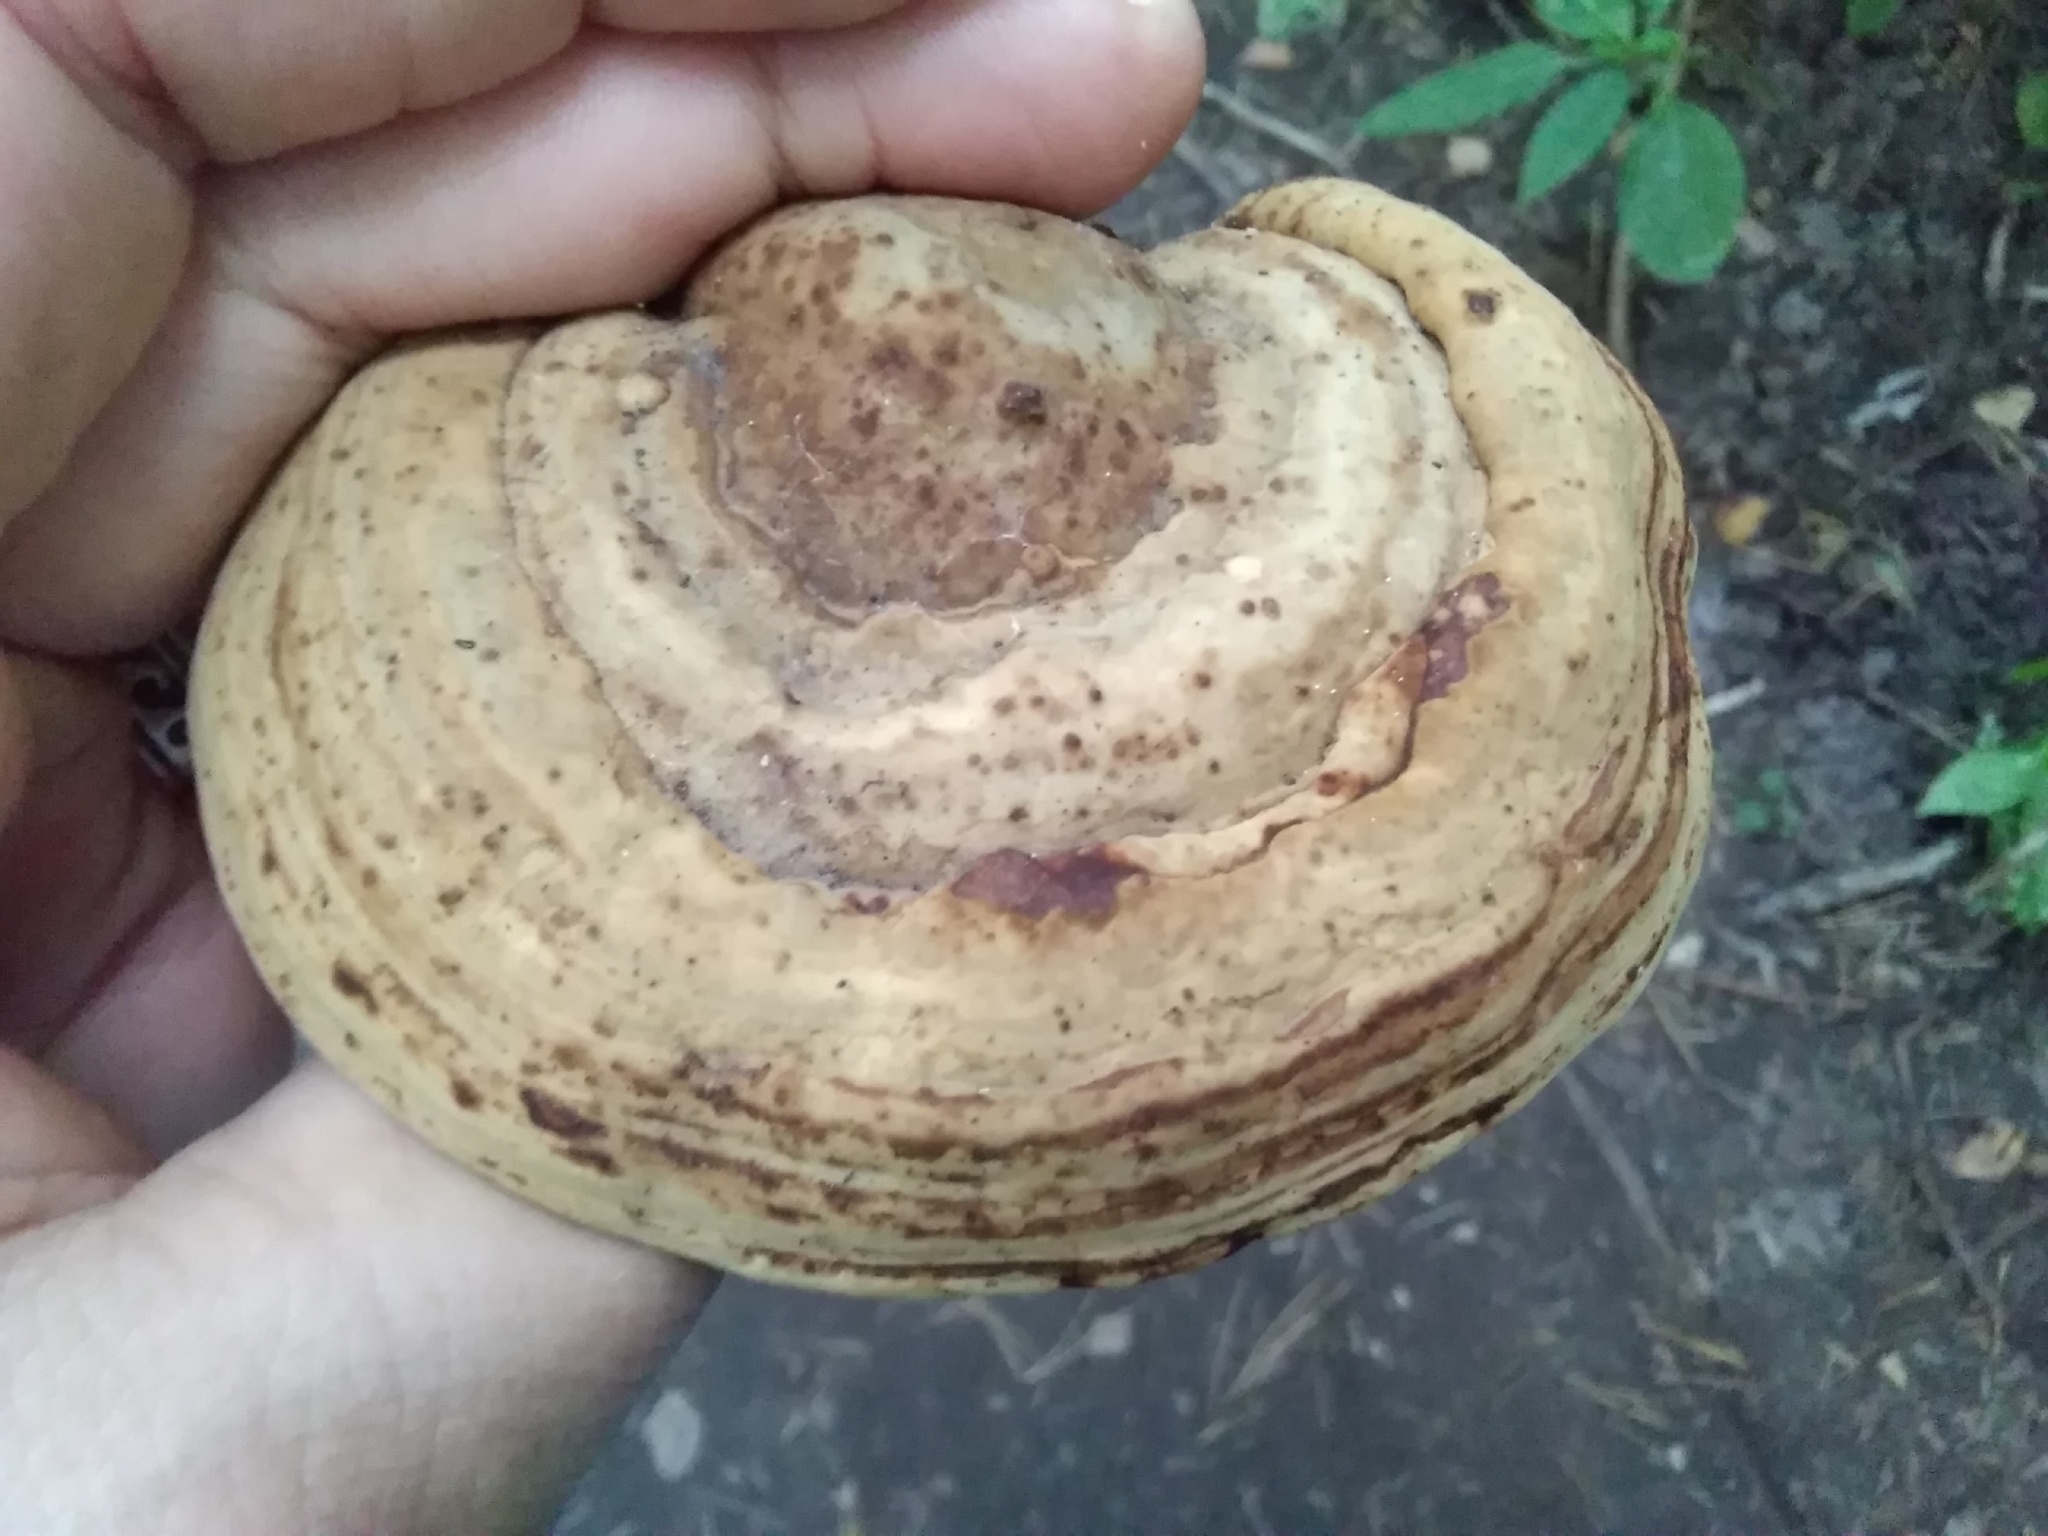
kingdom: Fungi
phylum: Basidiomycota
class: Agaricomycetes
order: Polyporales
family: Polyporaceae
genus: Fomes
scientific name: Fomes fomentarius
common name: Hoof fungus
